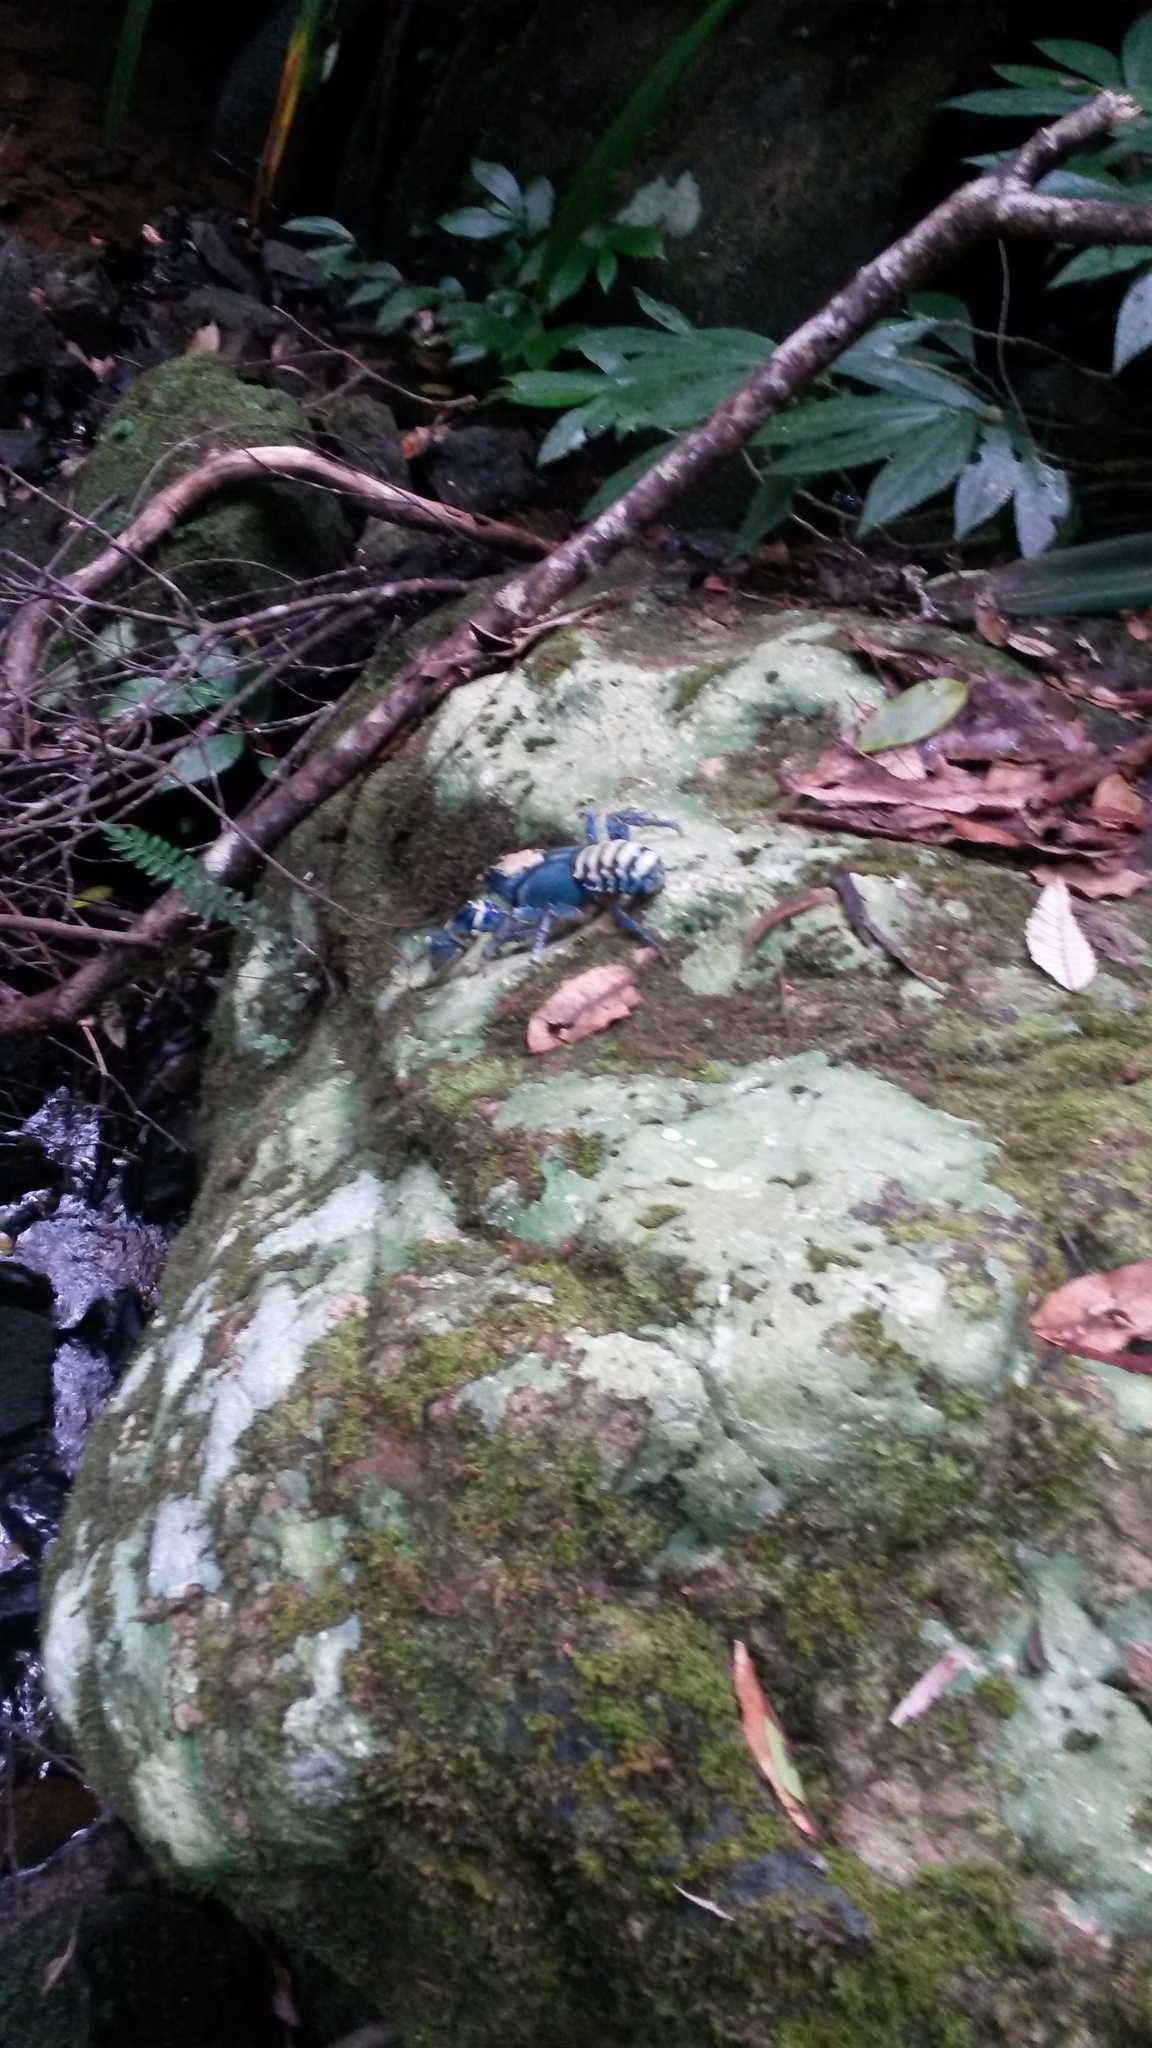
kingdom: Animalia
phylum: Arthropoda
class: Malacostraca
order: Decapoda
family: Parastacidae
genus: Euastacus
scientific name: Euastacus sulcatus
